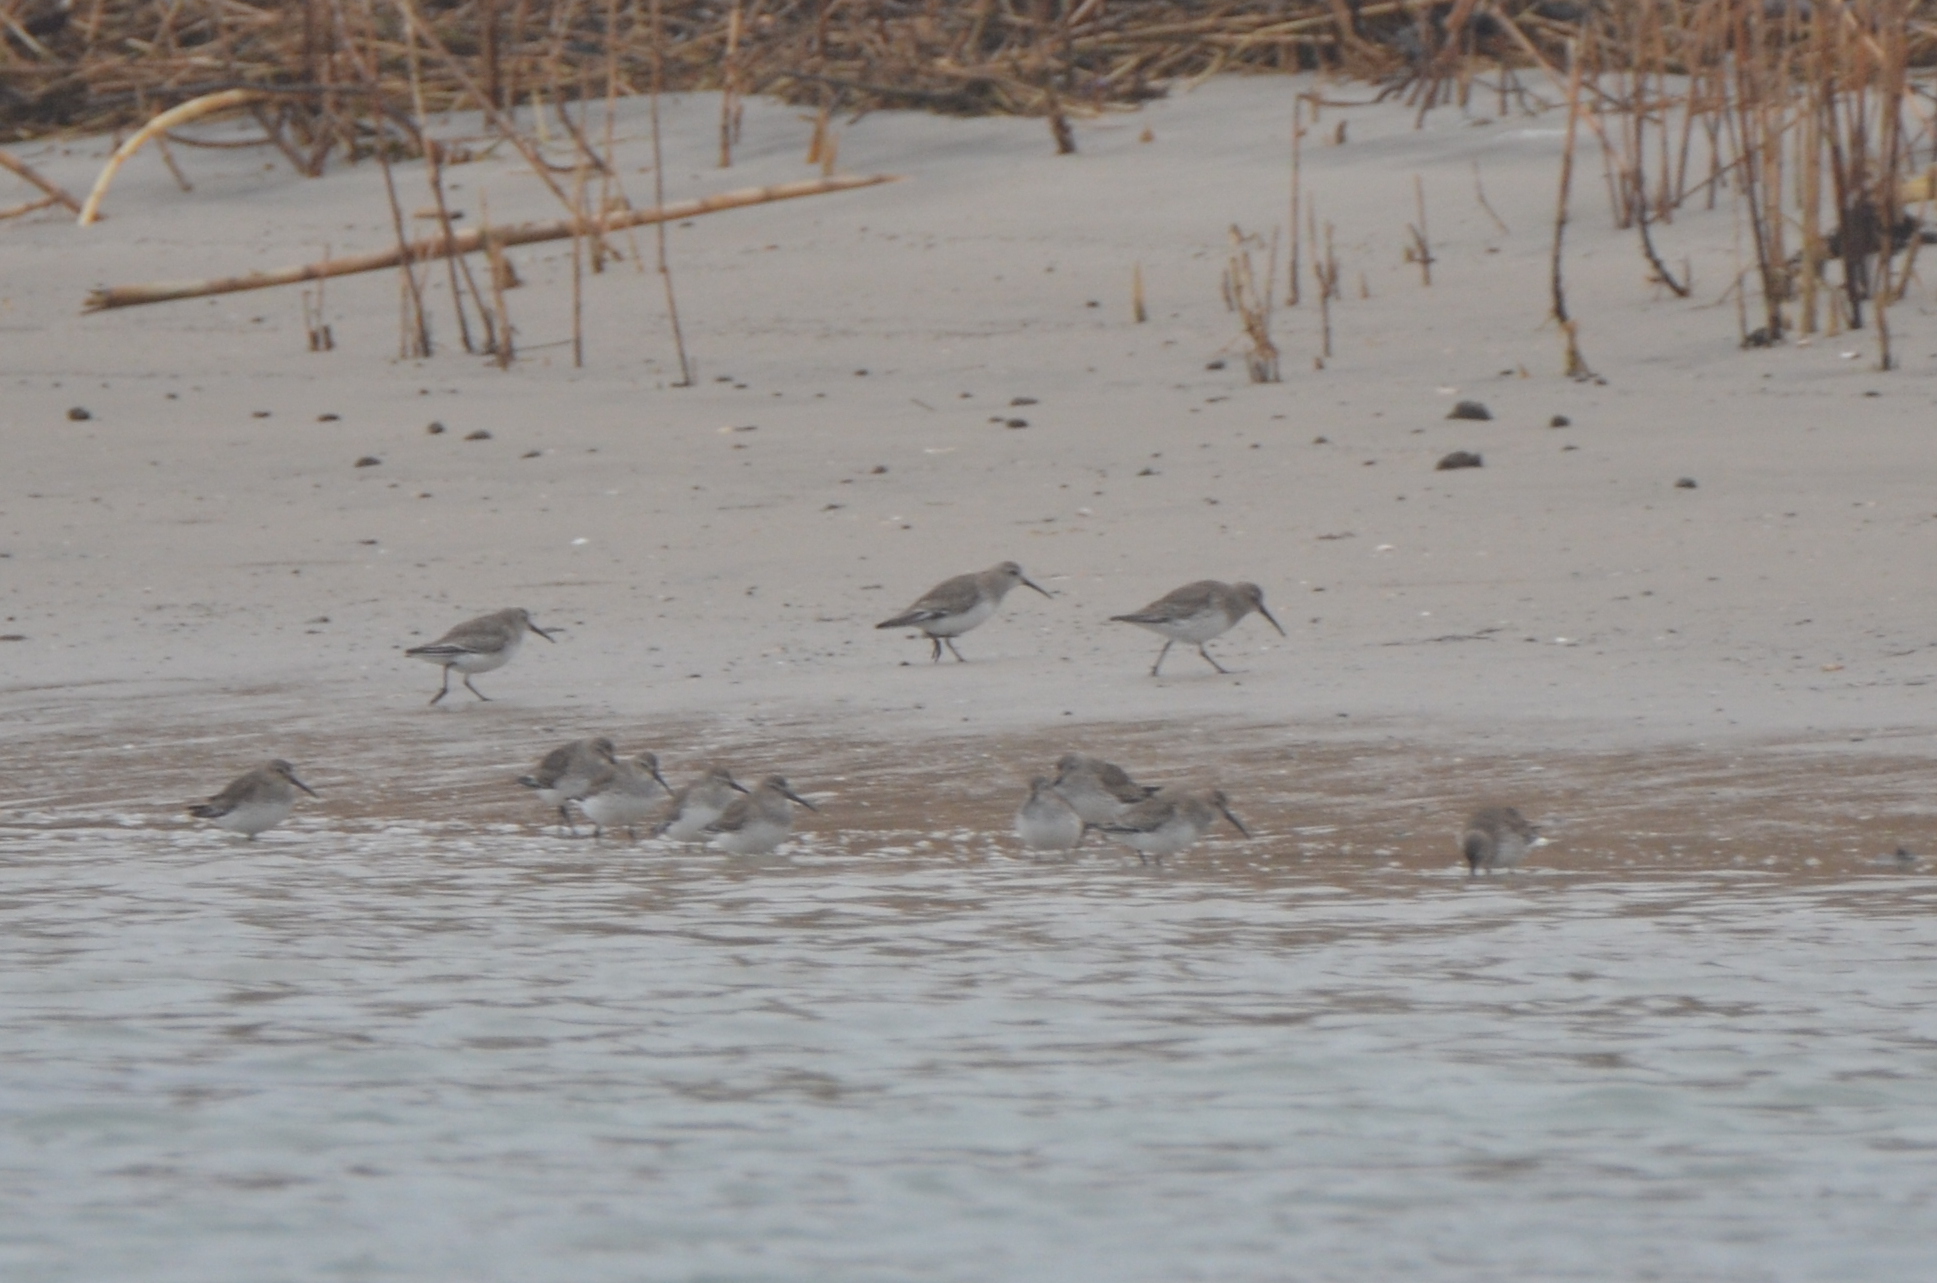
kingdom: Animalia
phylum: Chordata
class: Aves
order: Charadriiformes
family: Scolopacidae
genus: Calidris
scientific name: Calidris alpina
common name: Dunlin
